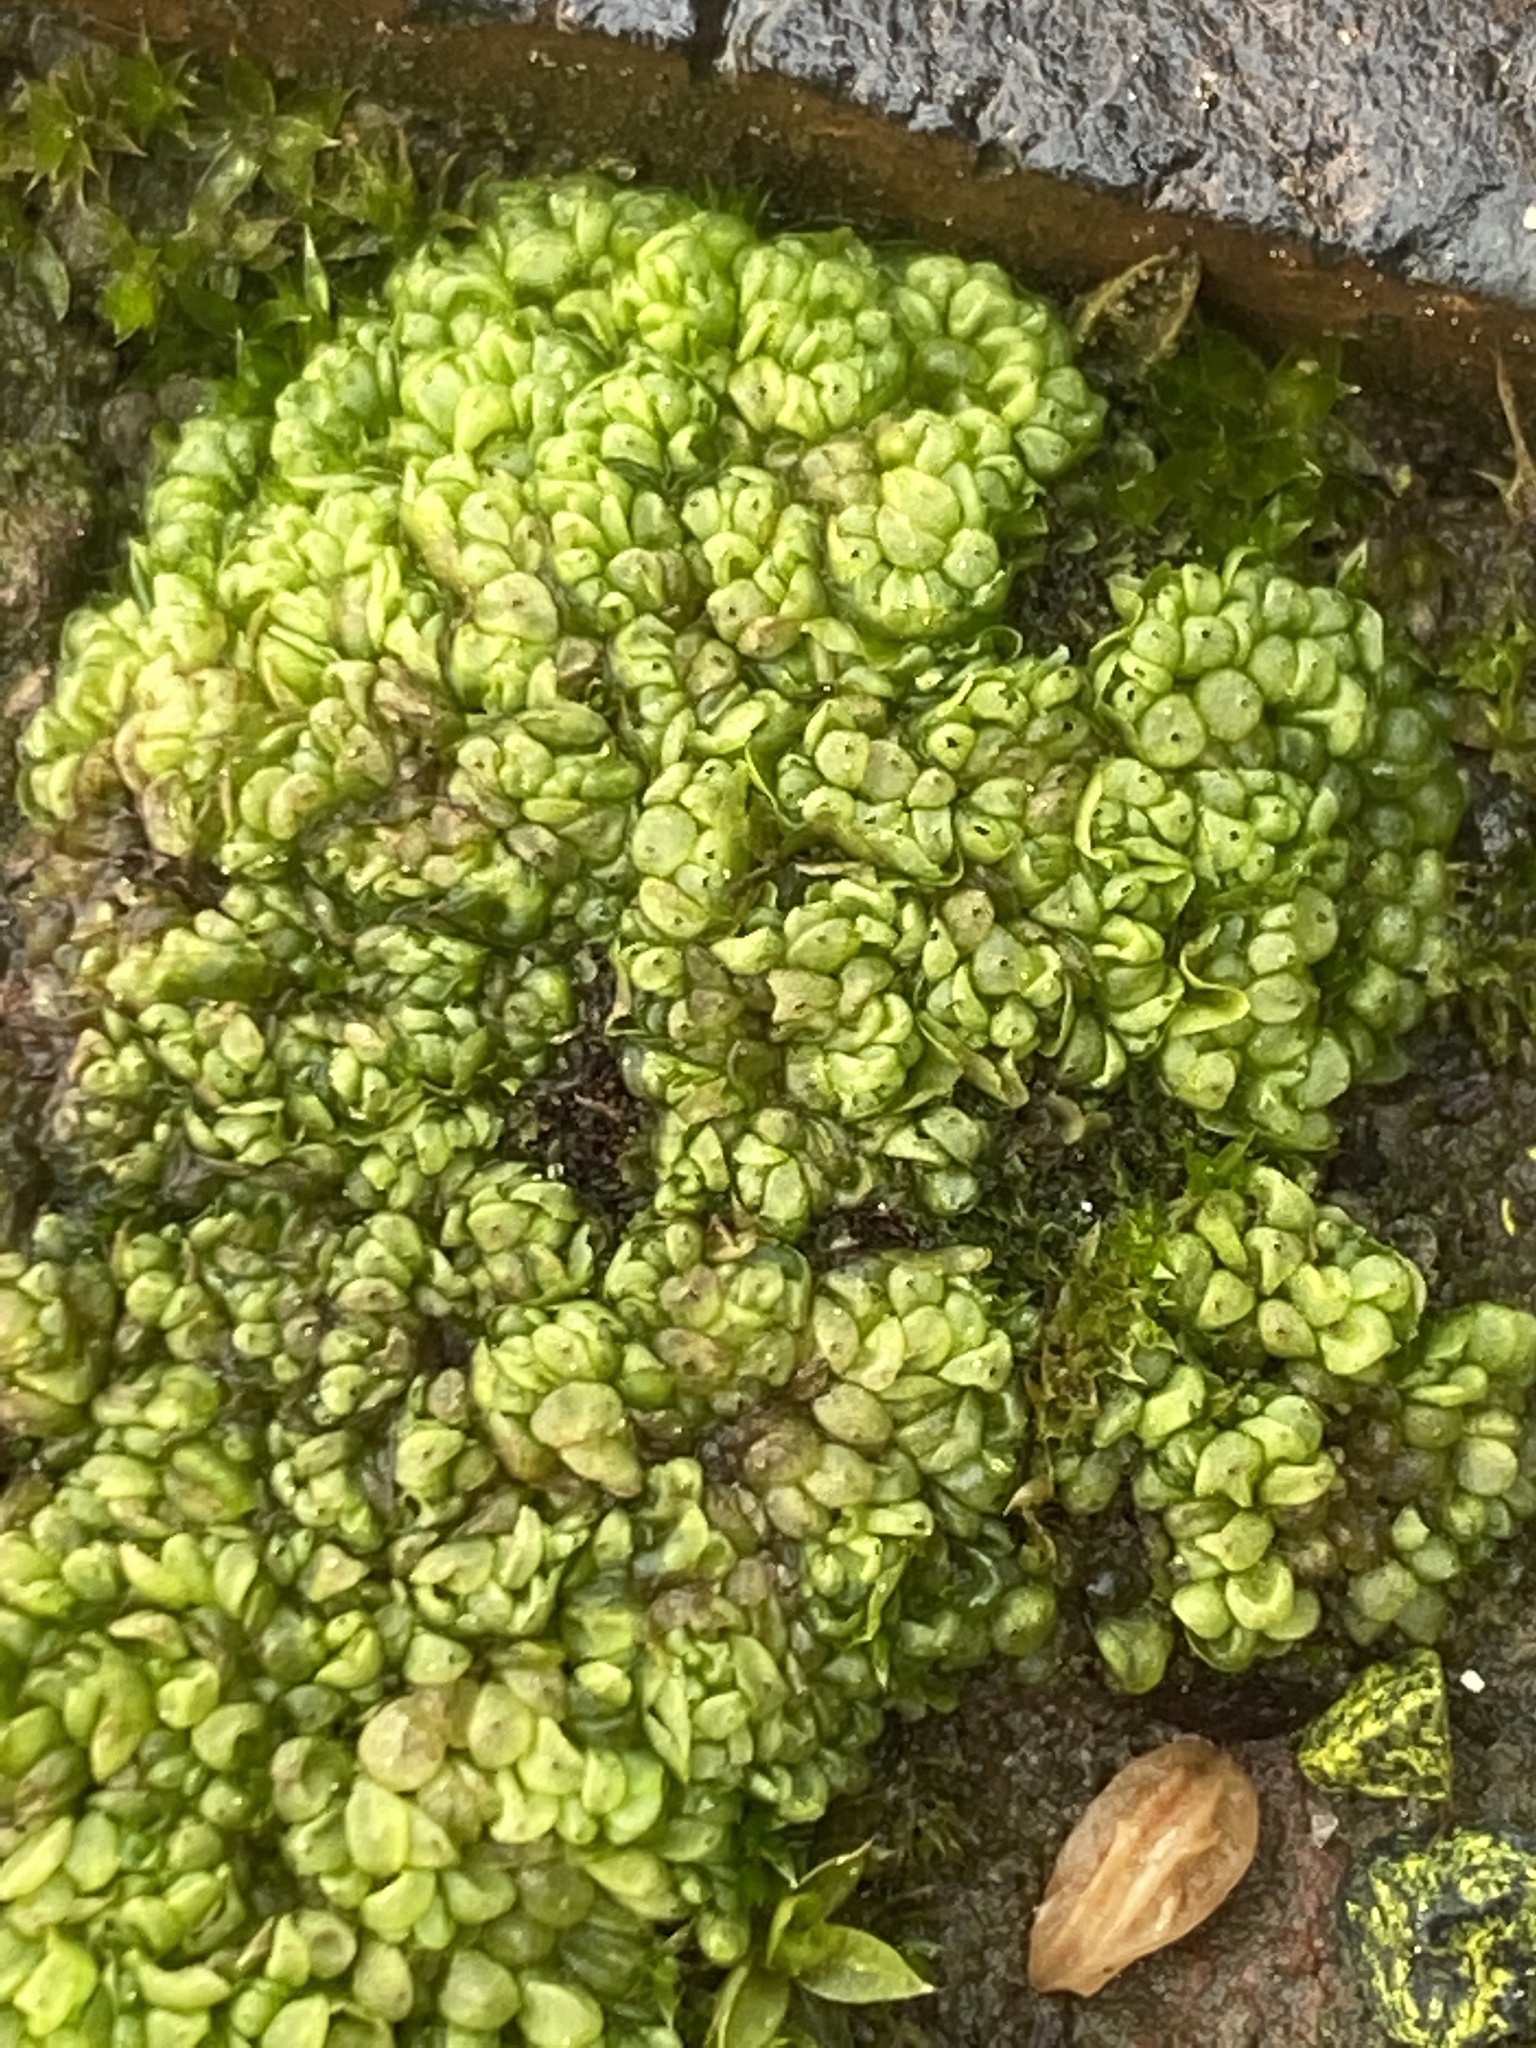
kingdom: Plantae
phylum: Marchantiophyta
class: Marchantiopsida
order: Sphaerocarpales
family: Sphaerocarpaceae
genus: Sphaerocarpos
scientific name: Sphaerocarpos texanus
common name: Texas balloonwort
